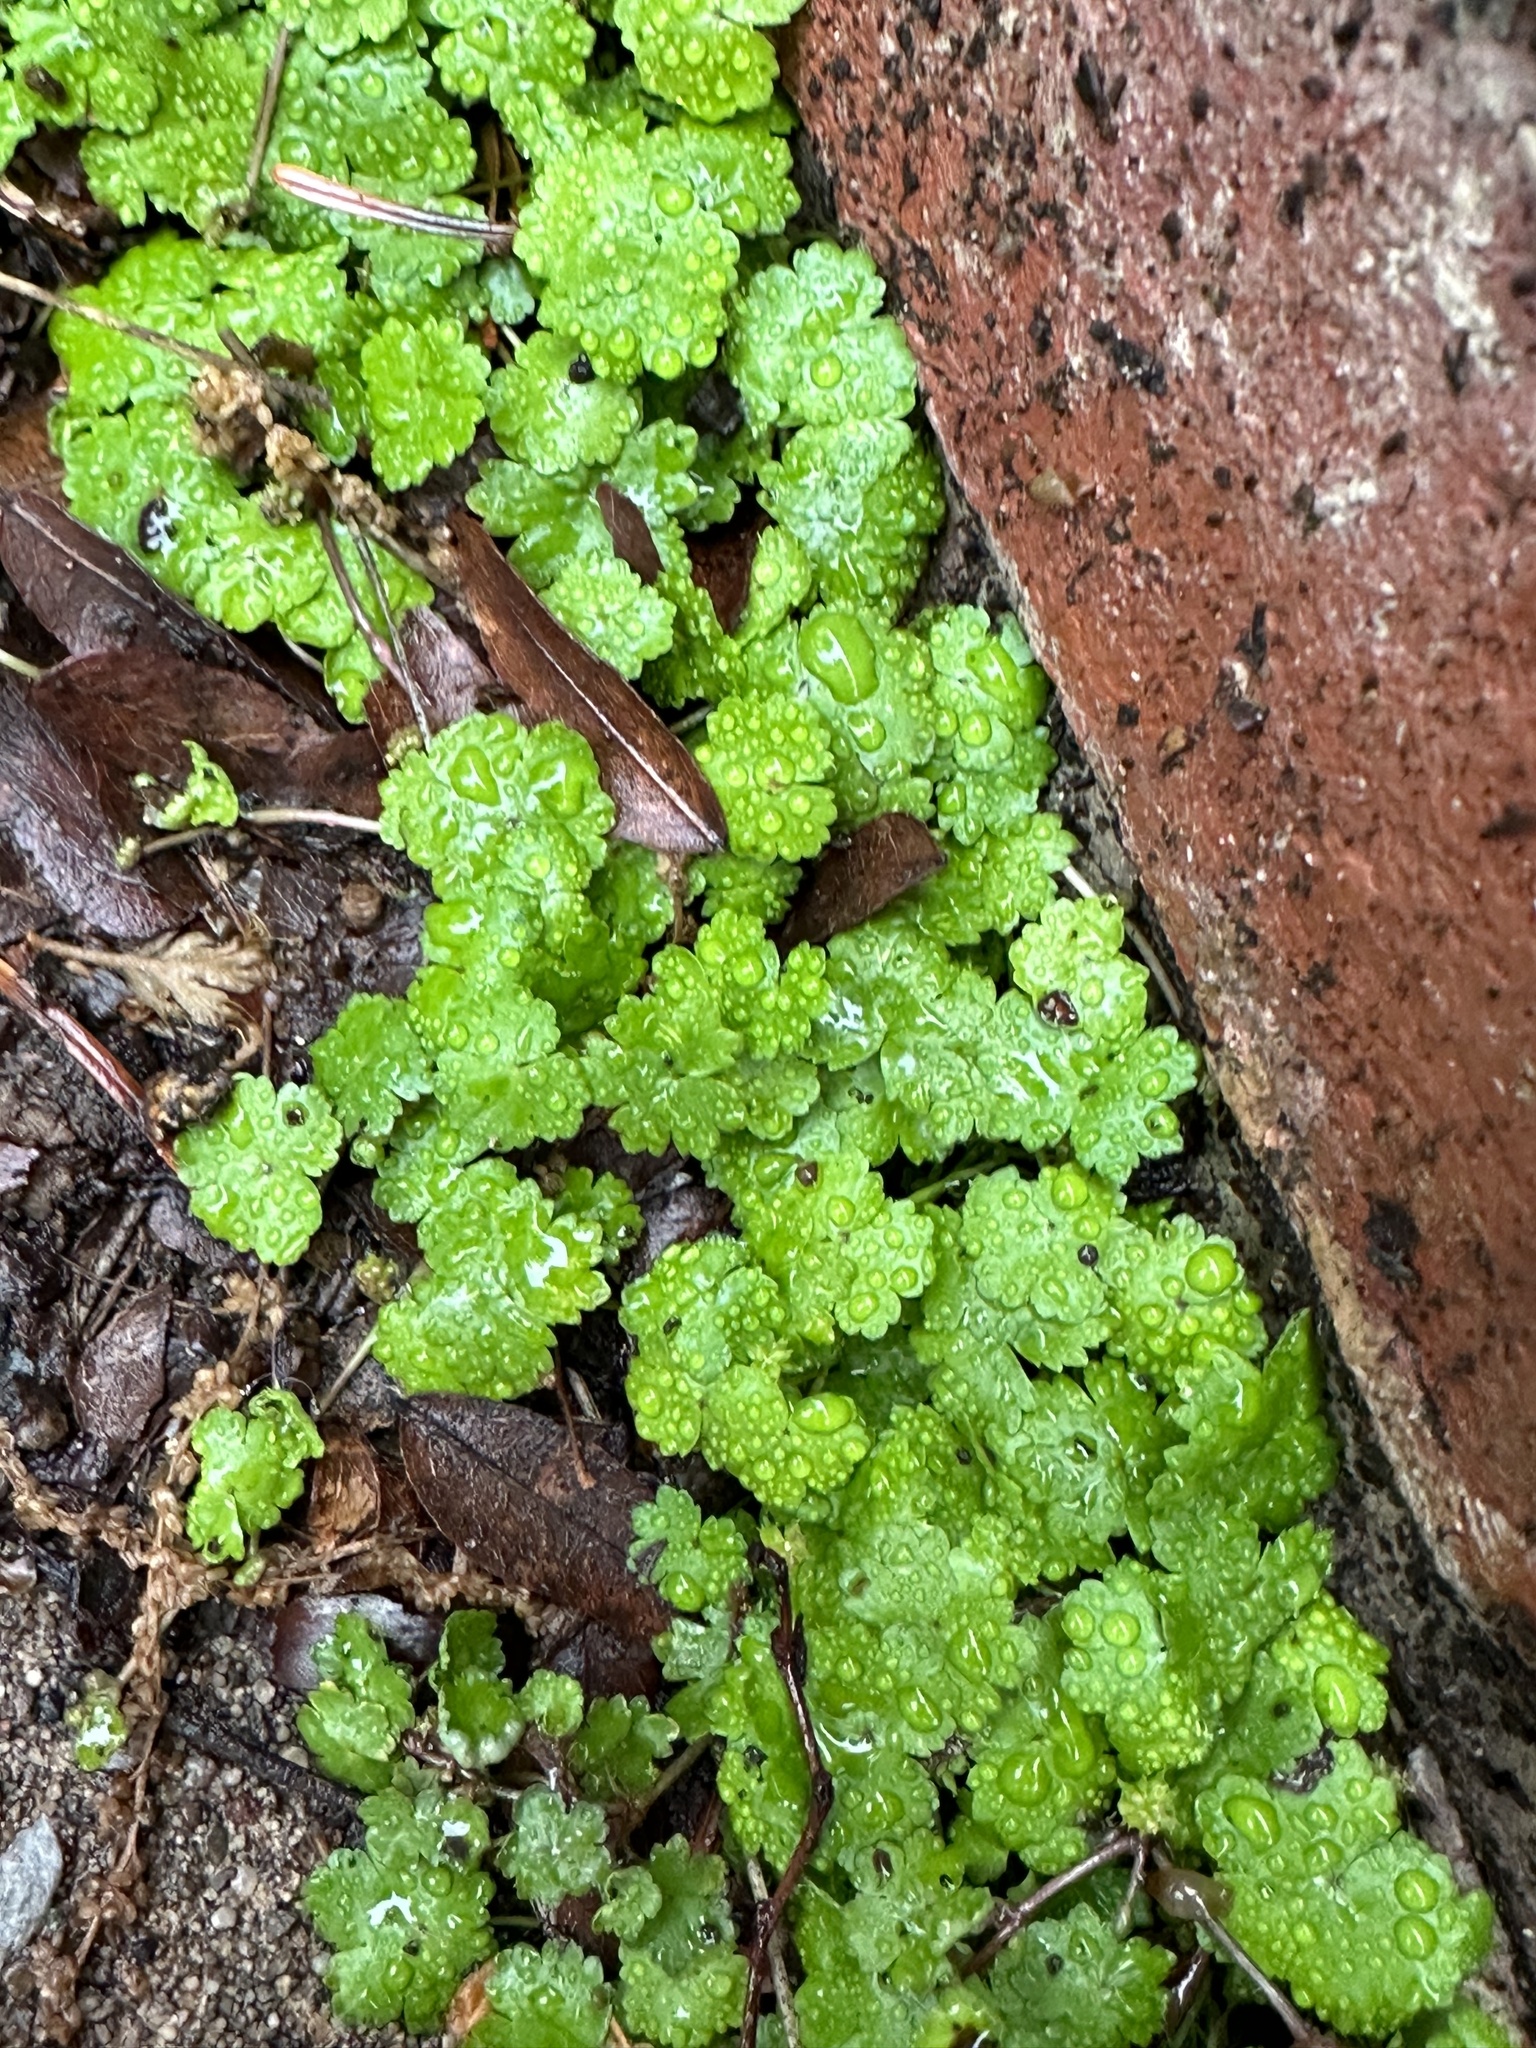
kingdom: Plantae
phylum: Tracheophyta
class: Magnoliopsida
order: Apiales
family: Araliaceae
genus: Hydrocotyle
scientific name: Hydrocotyle sibthorpioides
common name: Lawn marshpennywort
